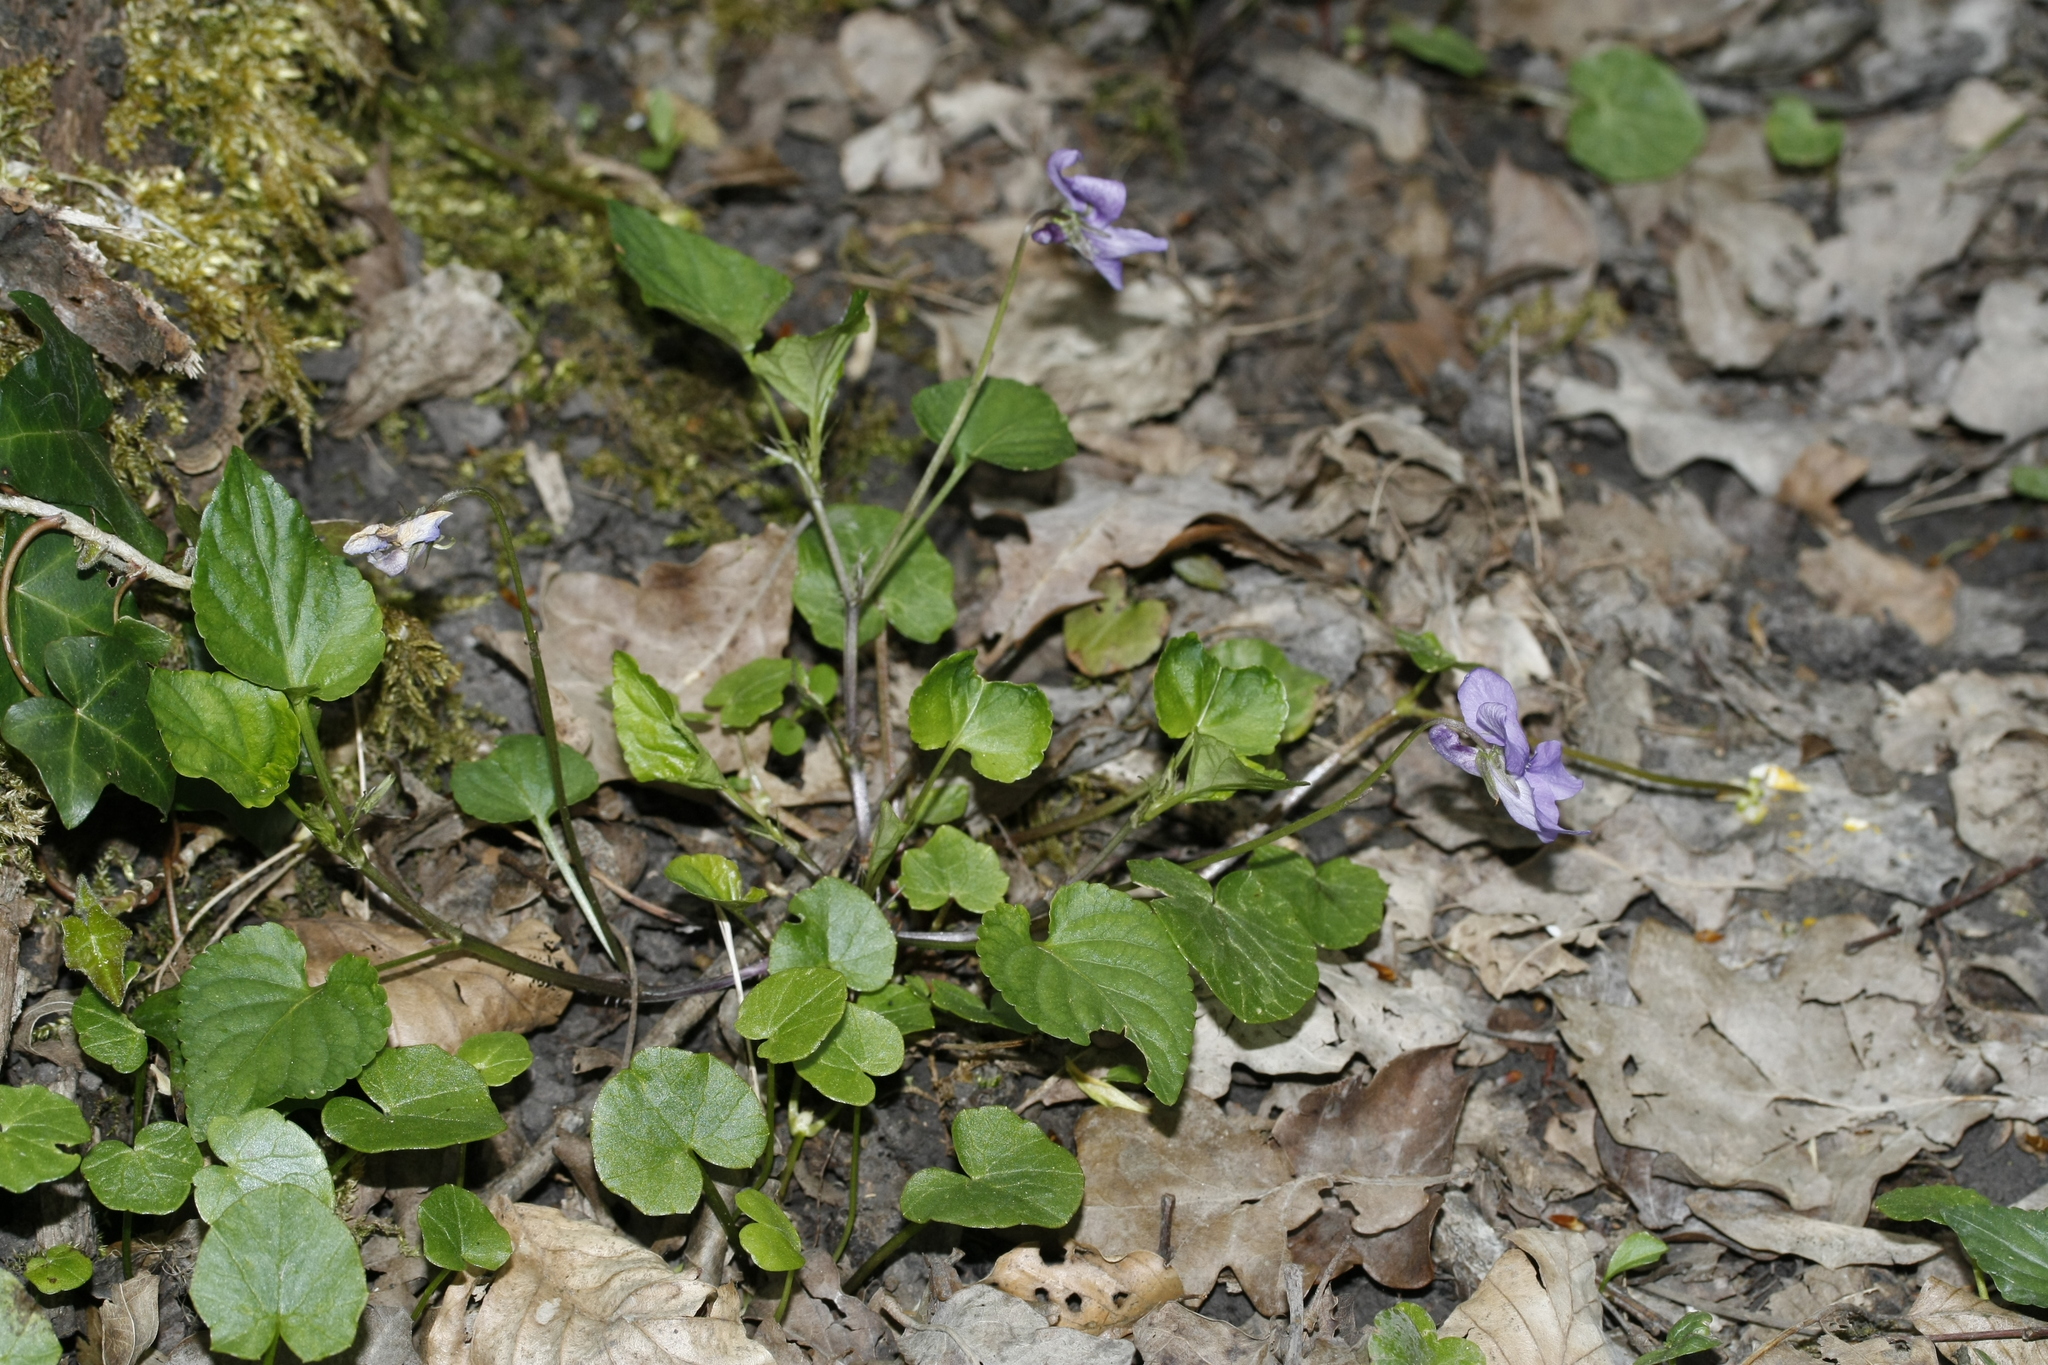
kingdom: Plantae
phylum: Tracheophyta
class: Magnoliopsida
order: Malpighiales
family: Violaceae
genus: Viola
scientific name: Viola reichenbachiana
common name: Early dog-violet
